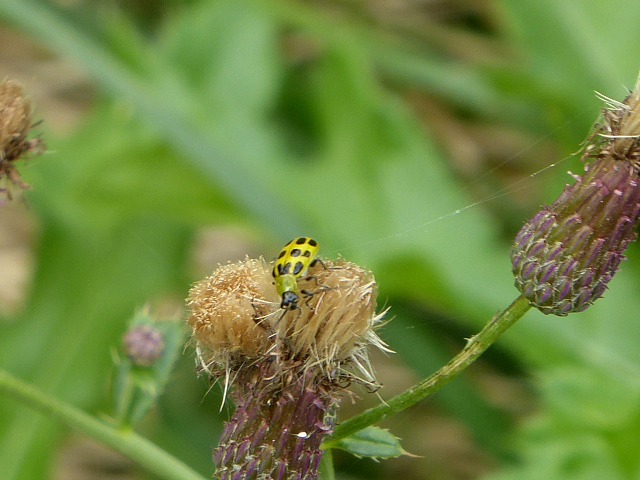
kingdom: Animalia
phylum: Arthropoda
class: Insecta
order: Coleoptera
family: Chrysomelidae
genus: Diabrotica
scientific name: Diabrotica undecimpunctata
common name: Spotted cucumber beetle
